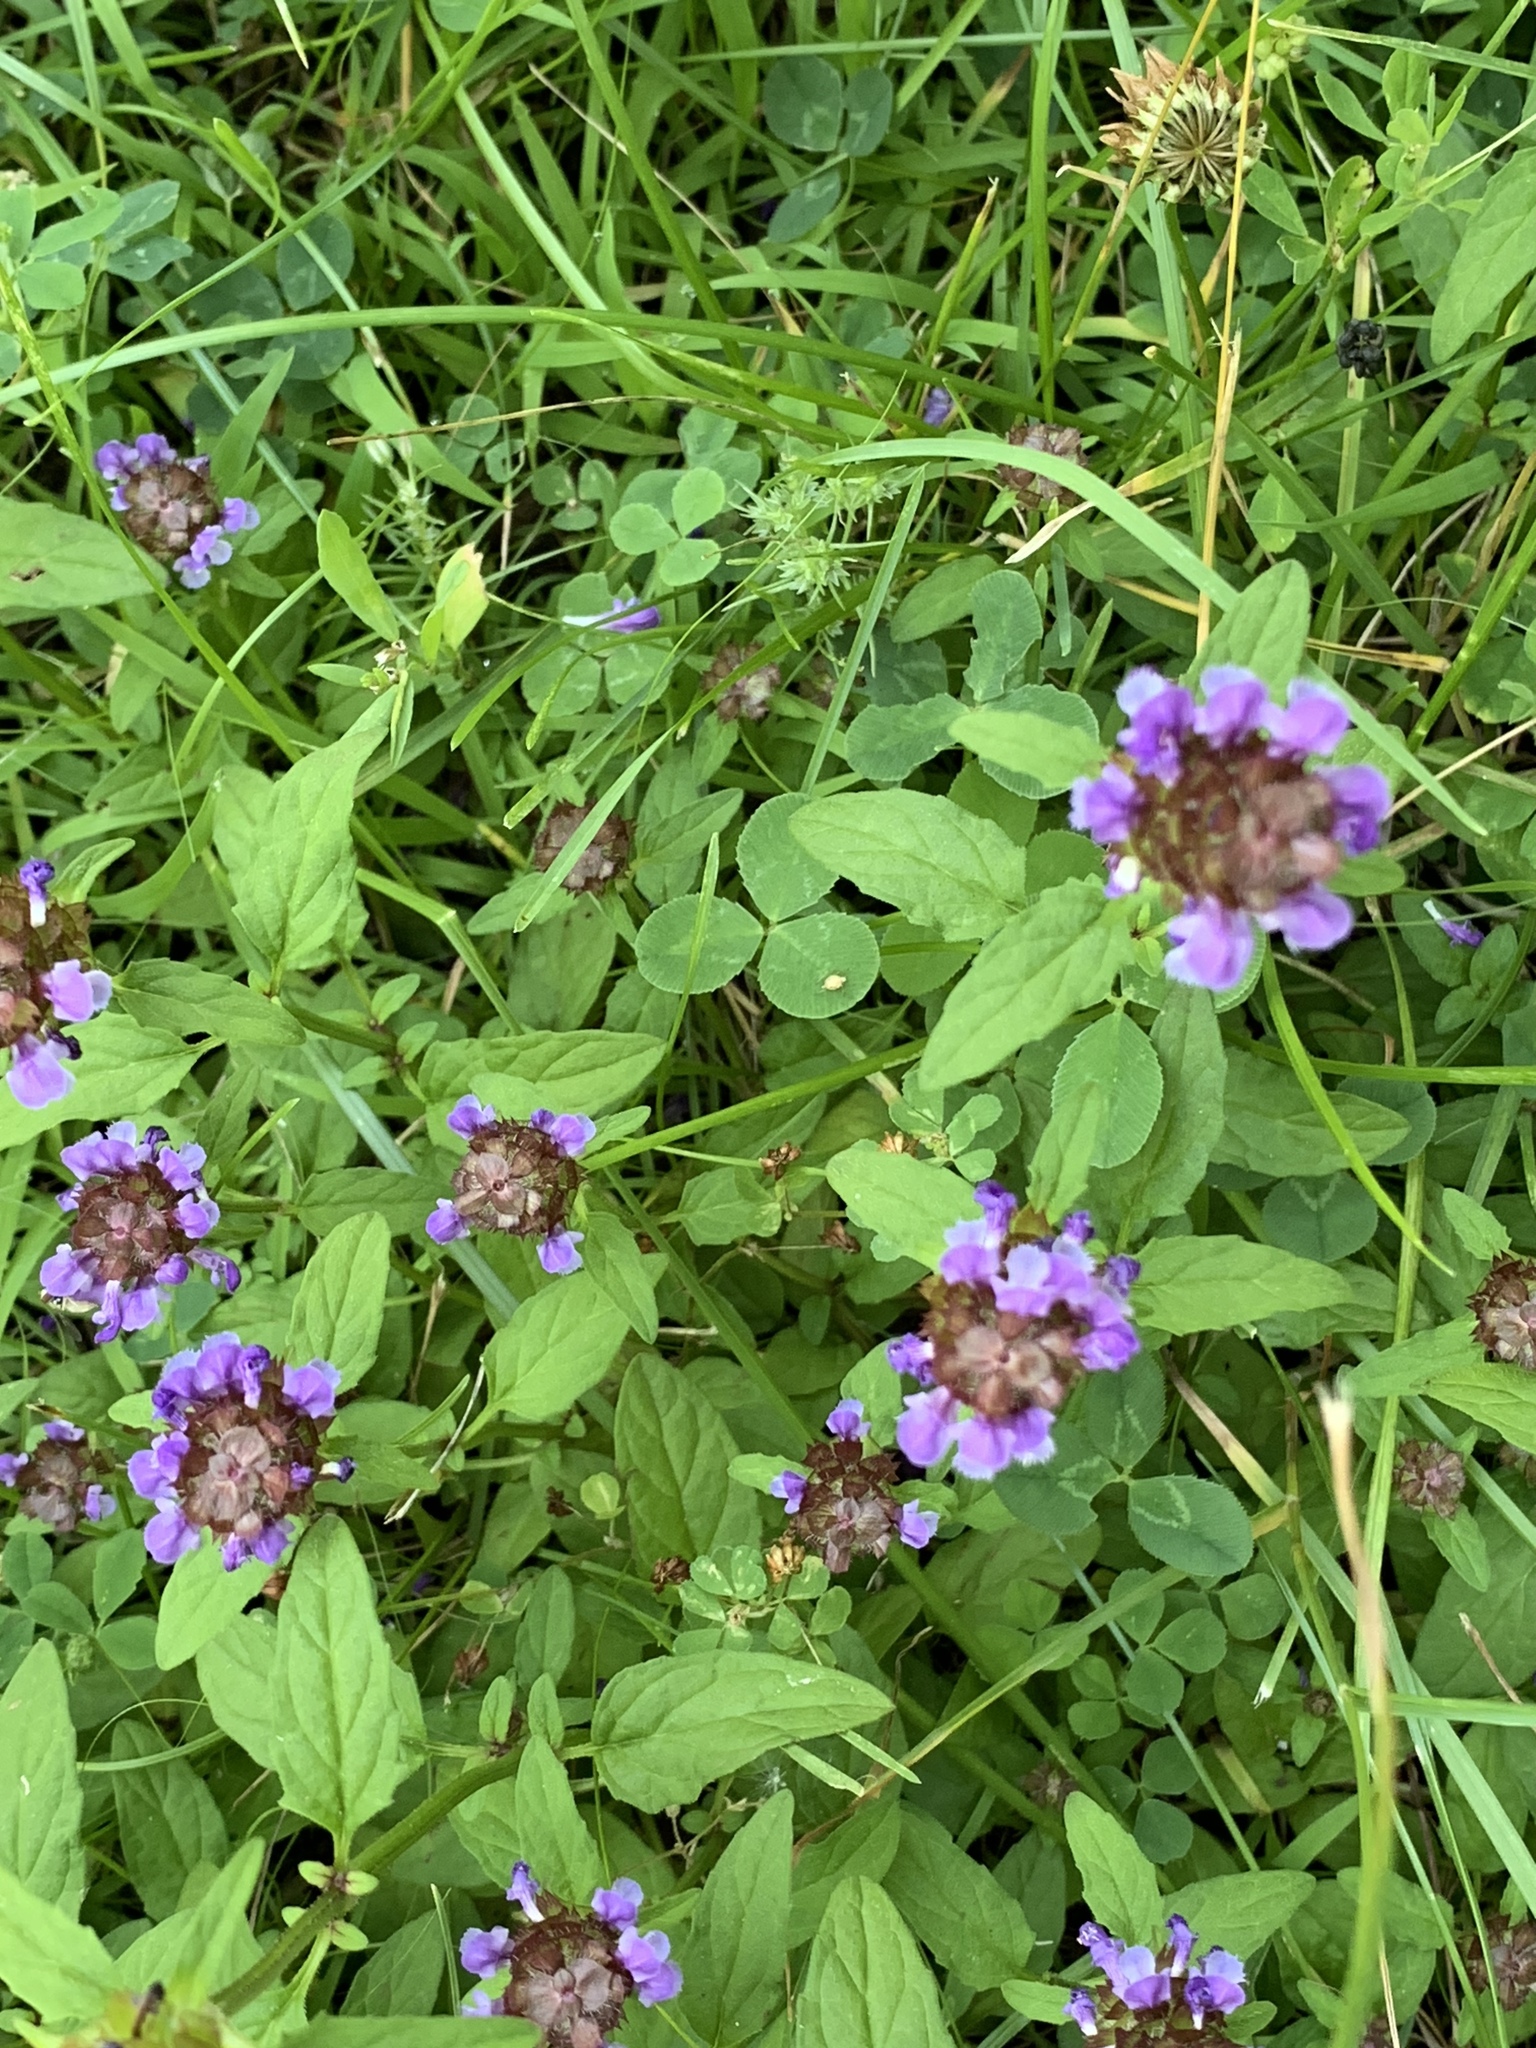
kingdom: Plantae
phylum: Tracheophyta
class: Magnoliopsida
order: Lamiales
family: Lamiaceae
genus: Prunella
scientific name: Prunella vulgaris
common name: Heal-all
